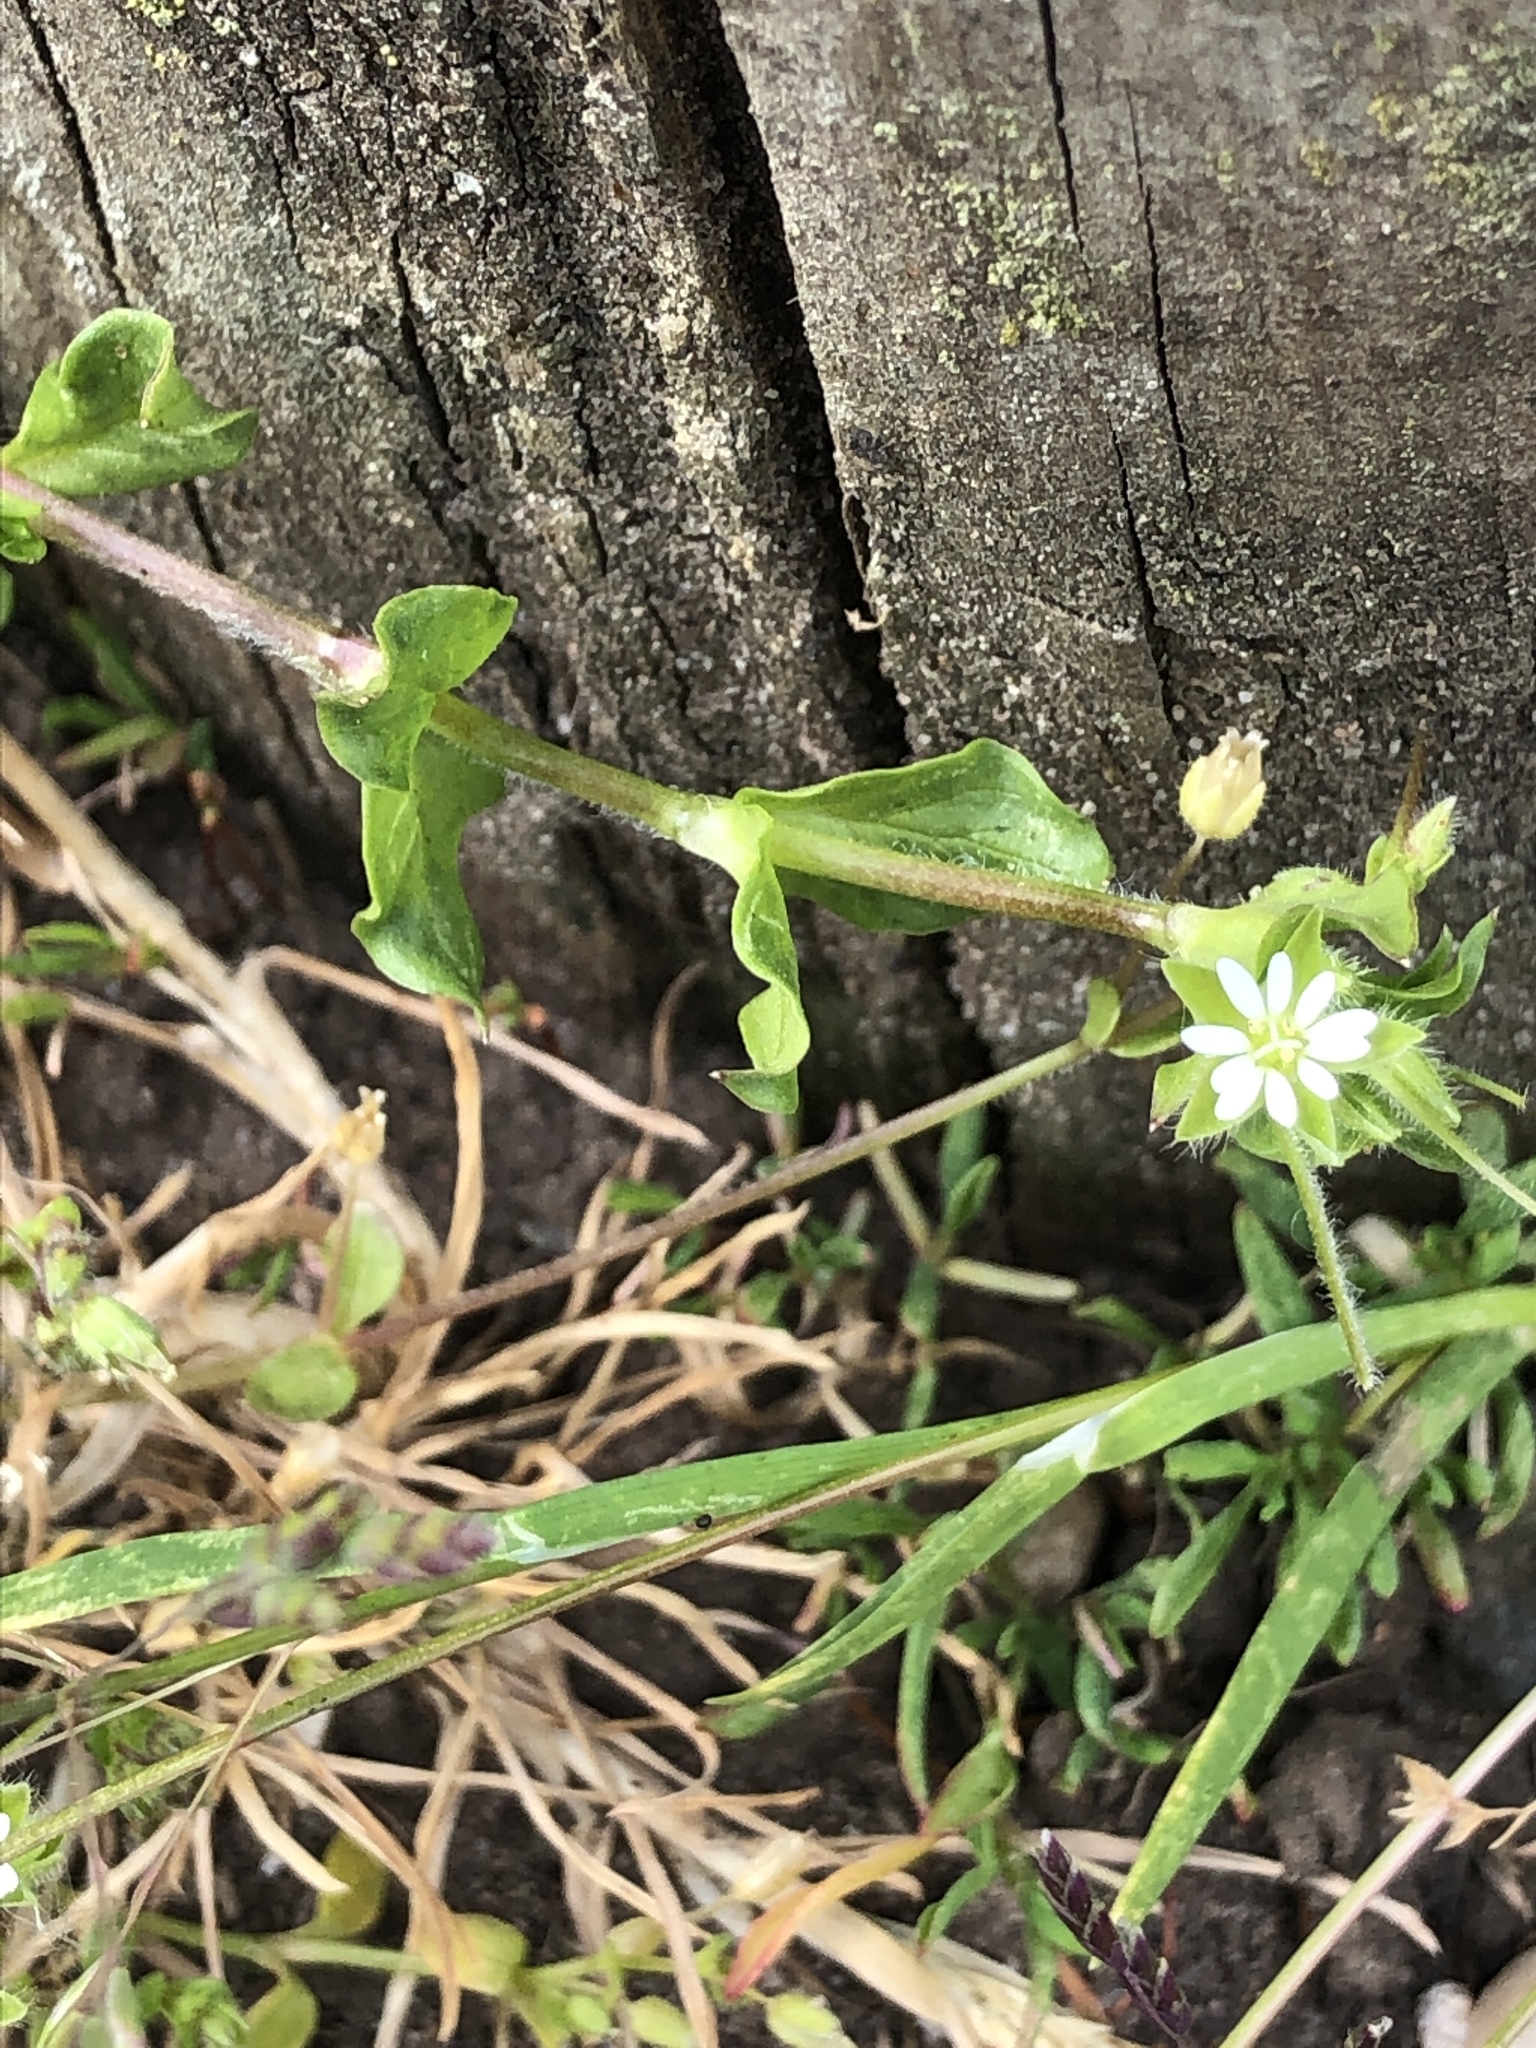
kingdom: Plantae
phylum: Tracheophyta
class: Magnoliopsida
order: Caryophyllales
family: Caryophyllaceae
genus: Stellaria
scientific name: Stellaria media
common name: Common chickweed
